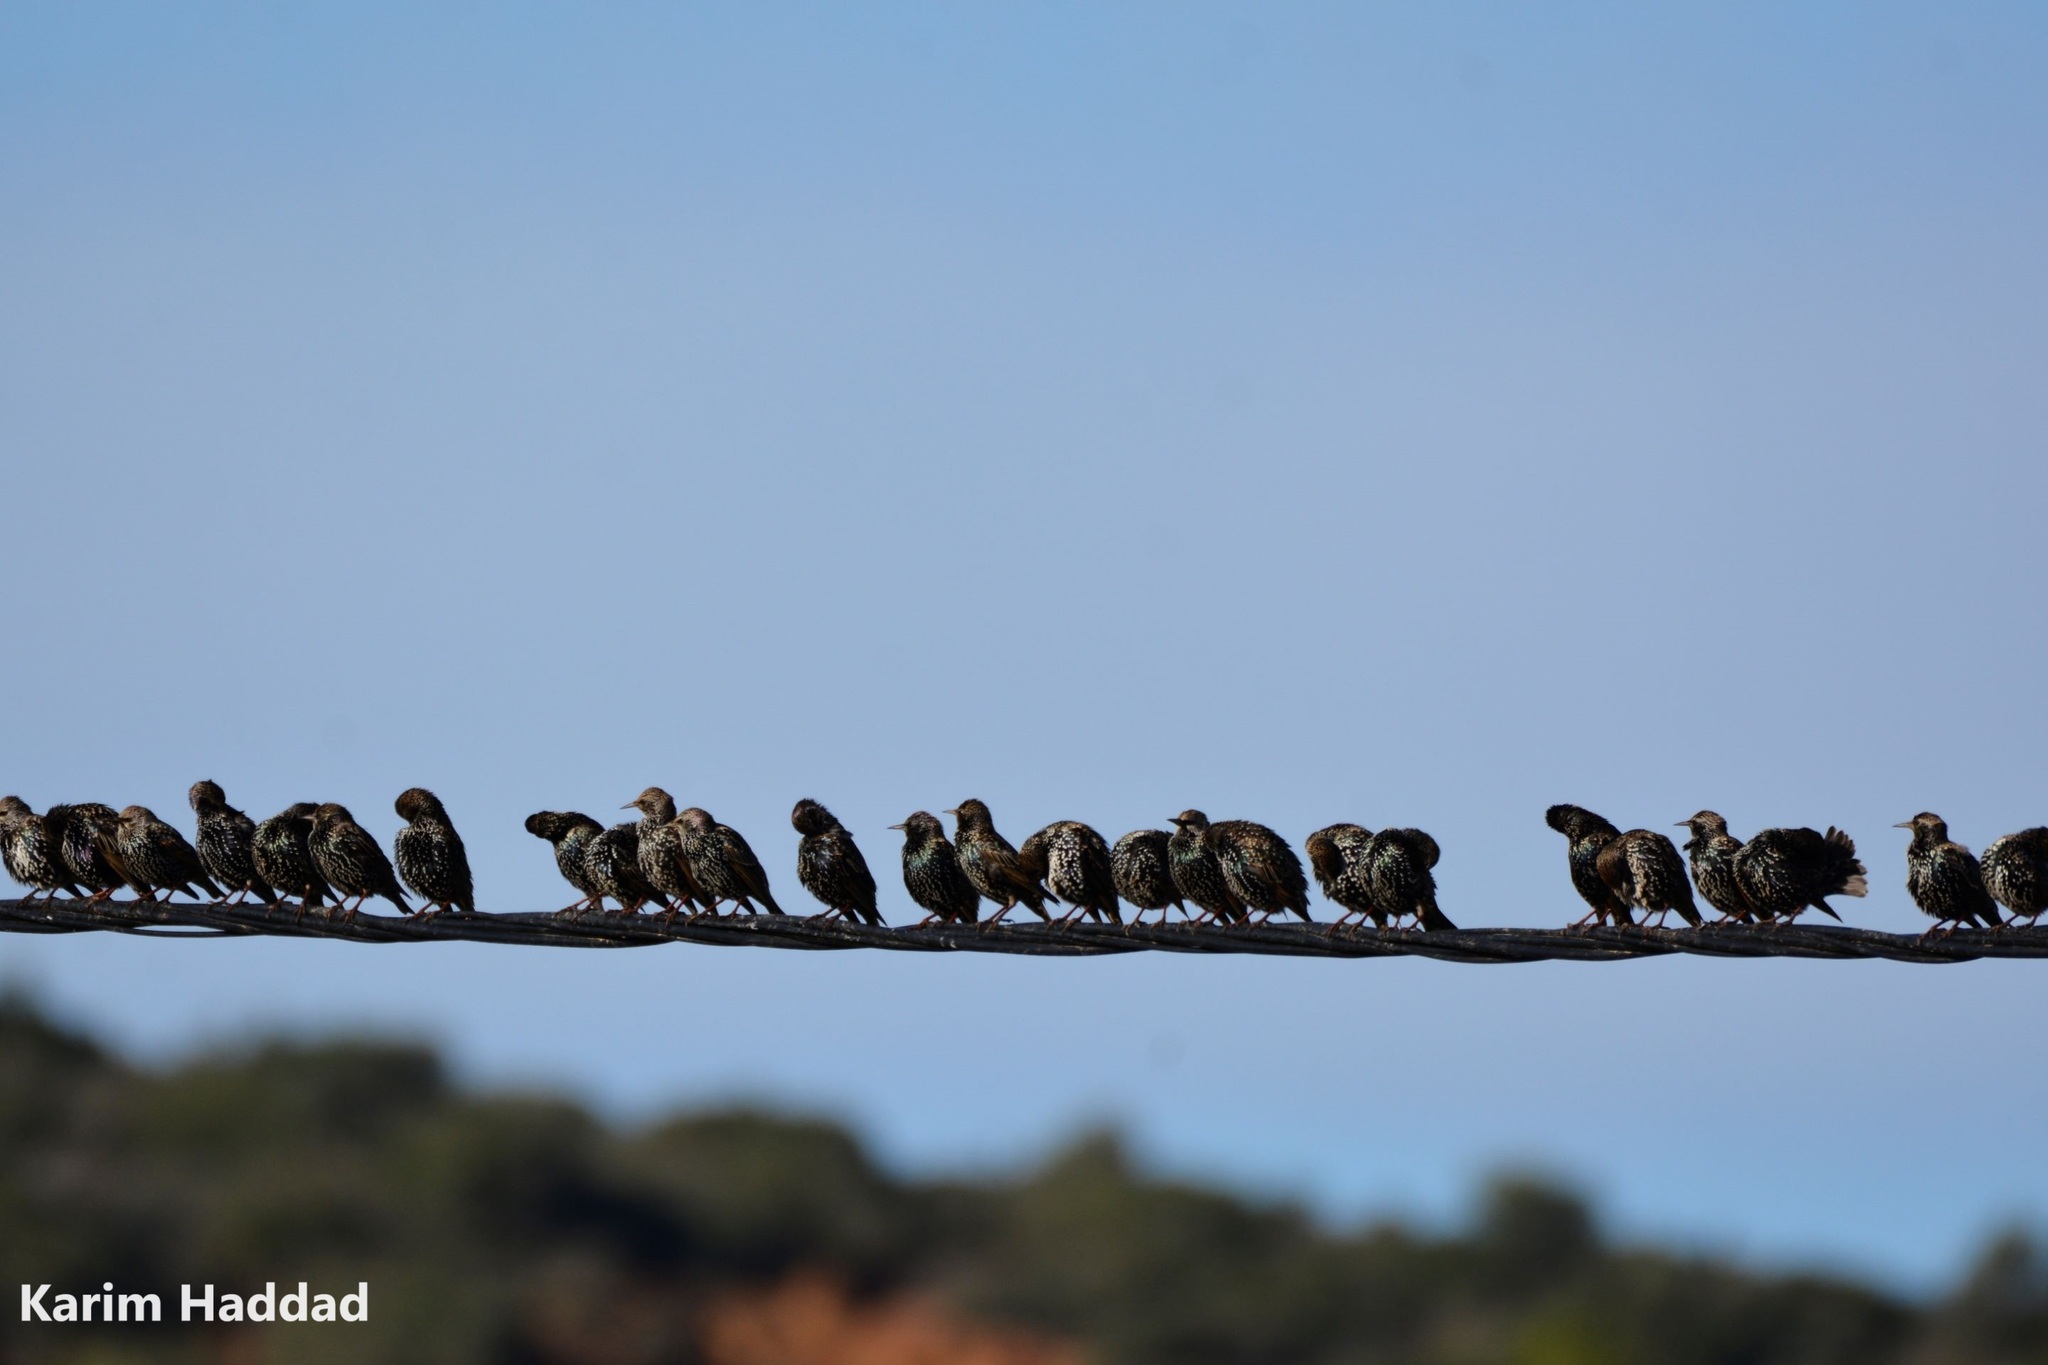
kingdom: Animalia
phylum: Chordata
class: Aves
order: Passeriformes
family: Sturnidae
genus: Sturnus
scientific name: Sturnus vulgaris
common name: Common starling
